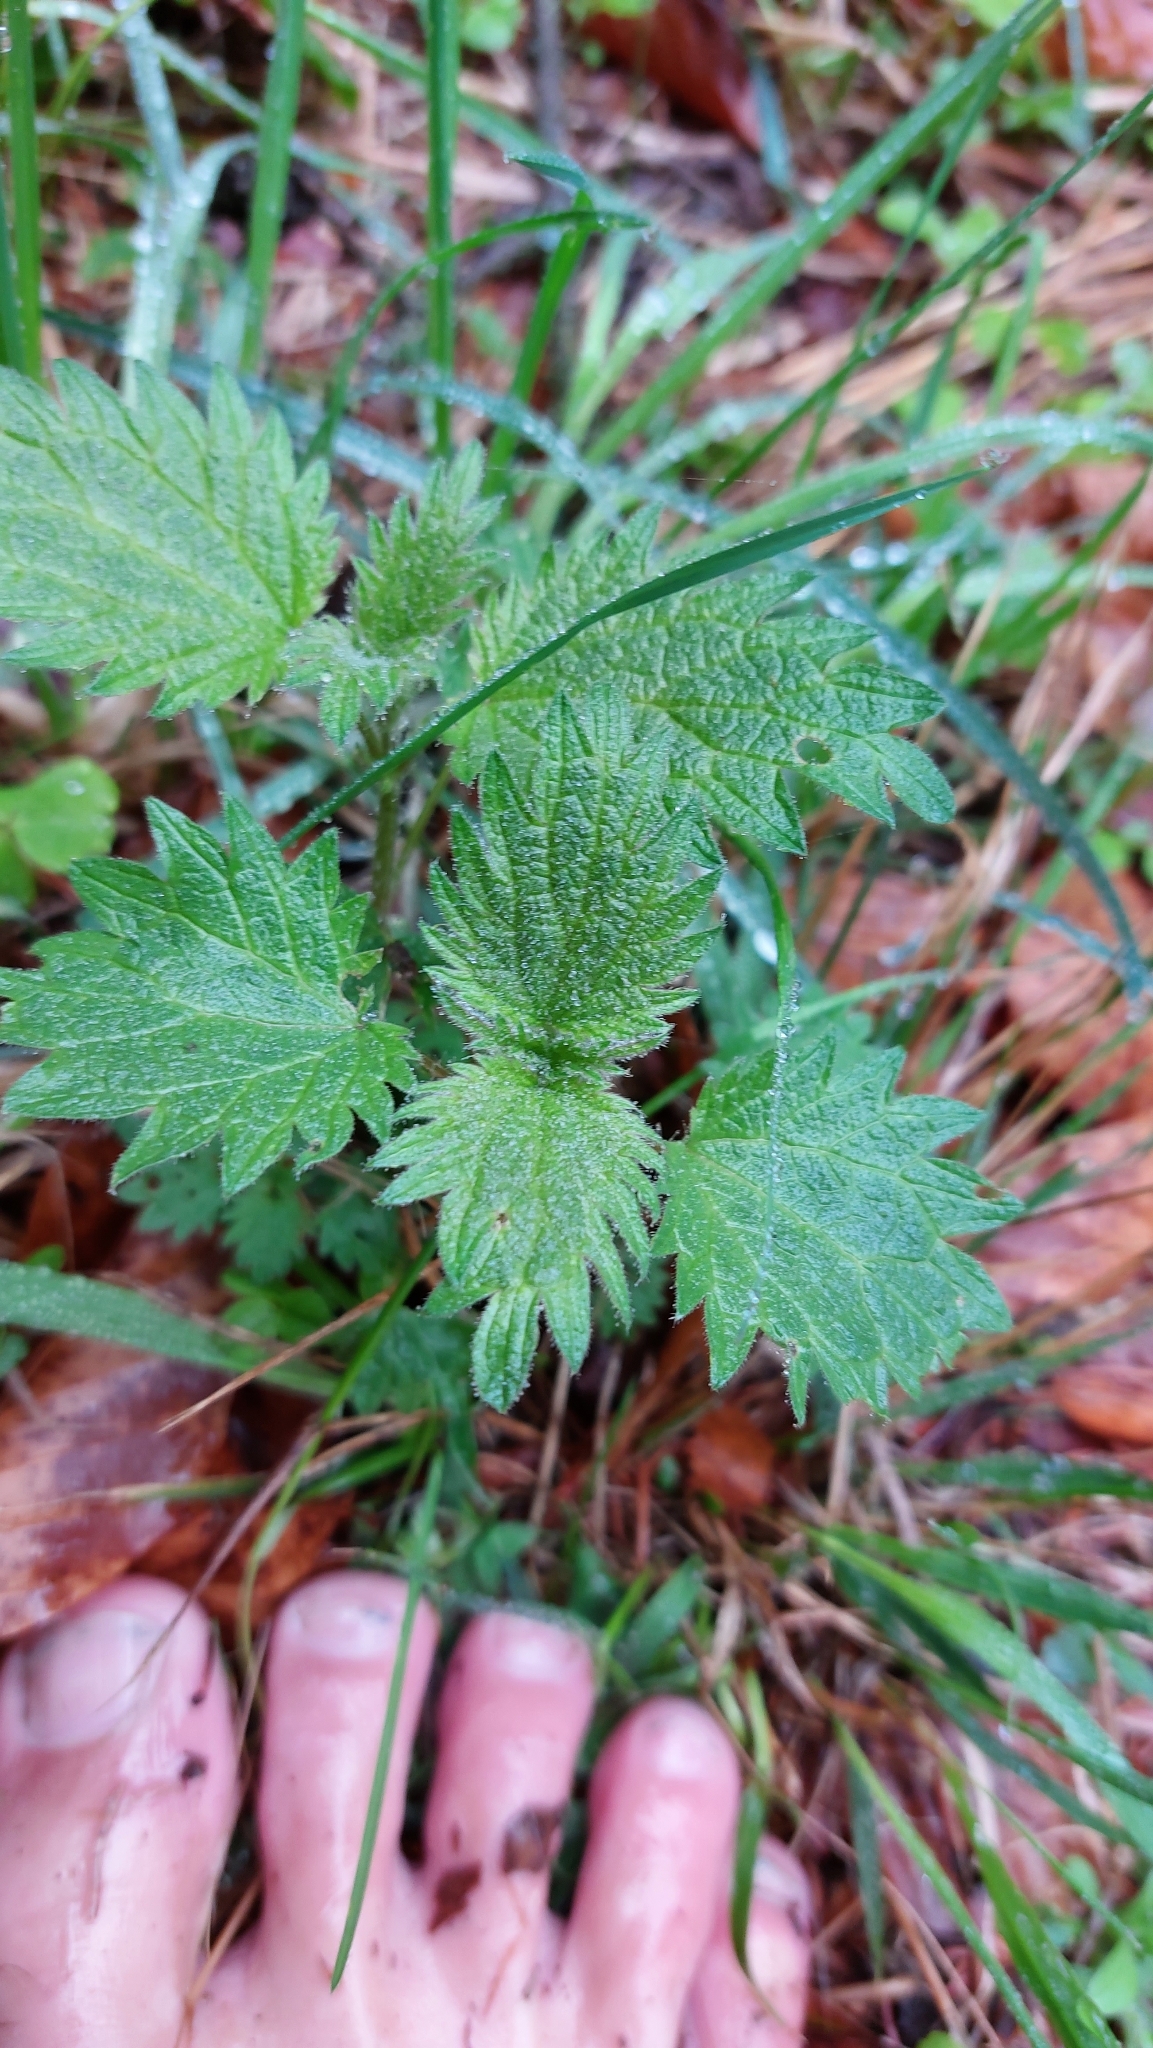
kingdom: Plantae
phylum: Tracheophyta
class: Magnoliopsida
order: Rosales
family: Urticaceae
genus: Urtica
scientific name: Urtica dioica
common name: Common nettle
